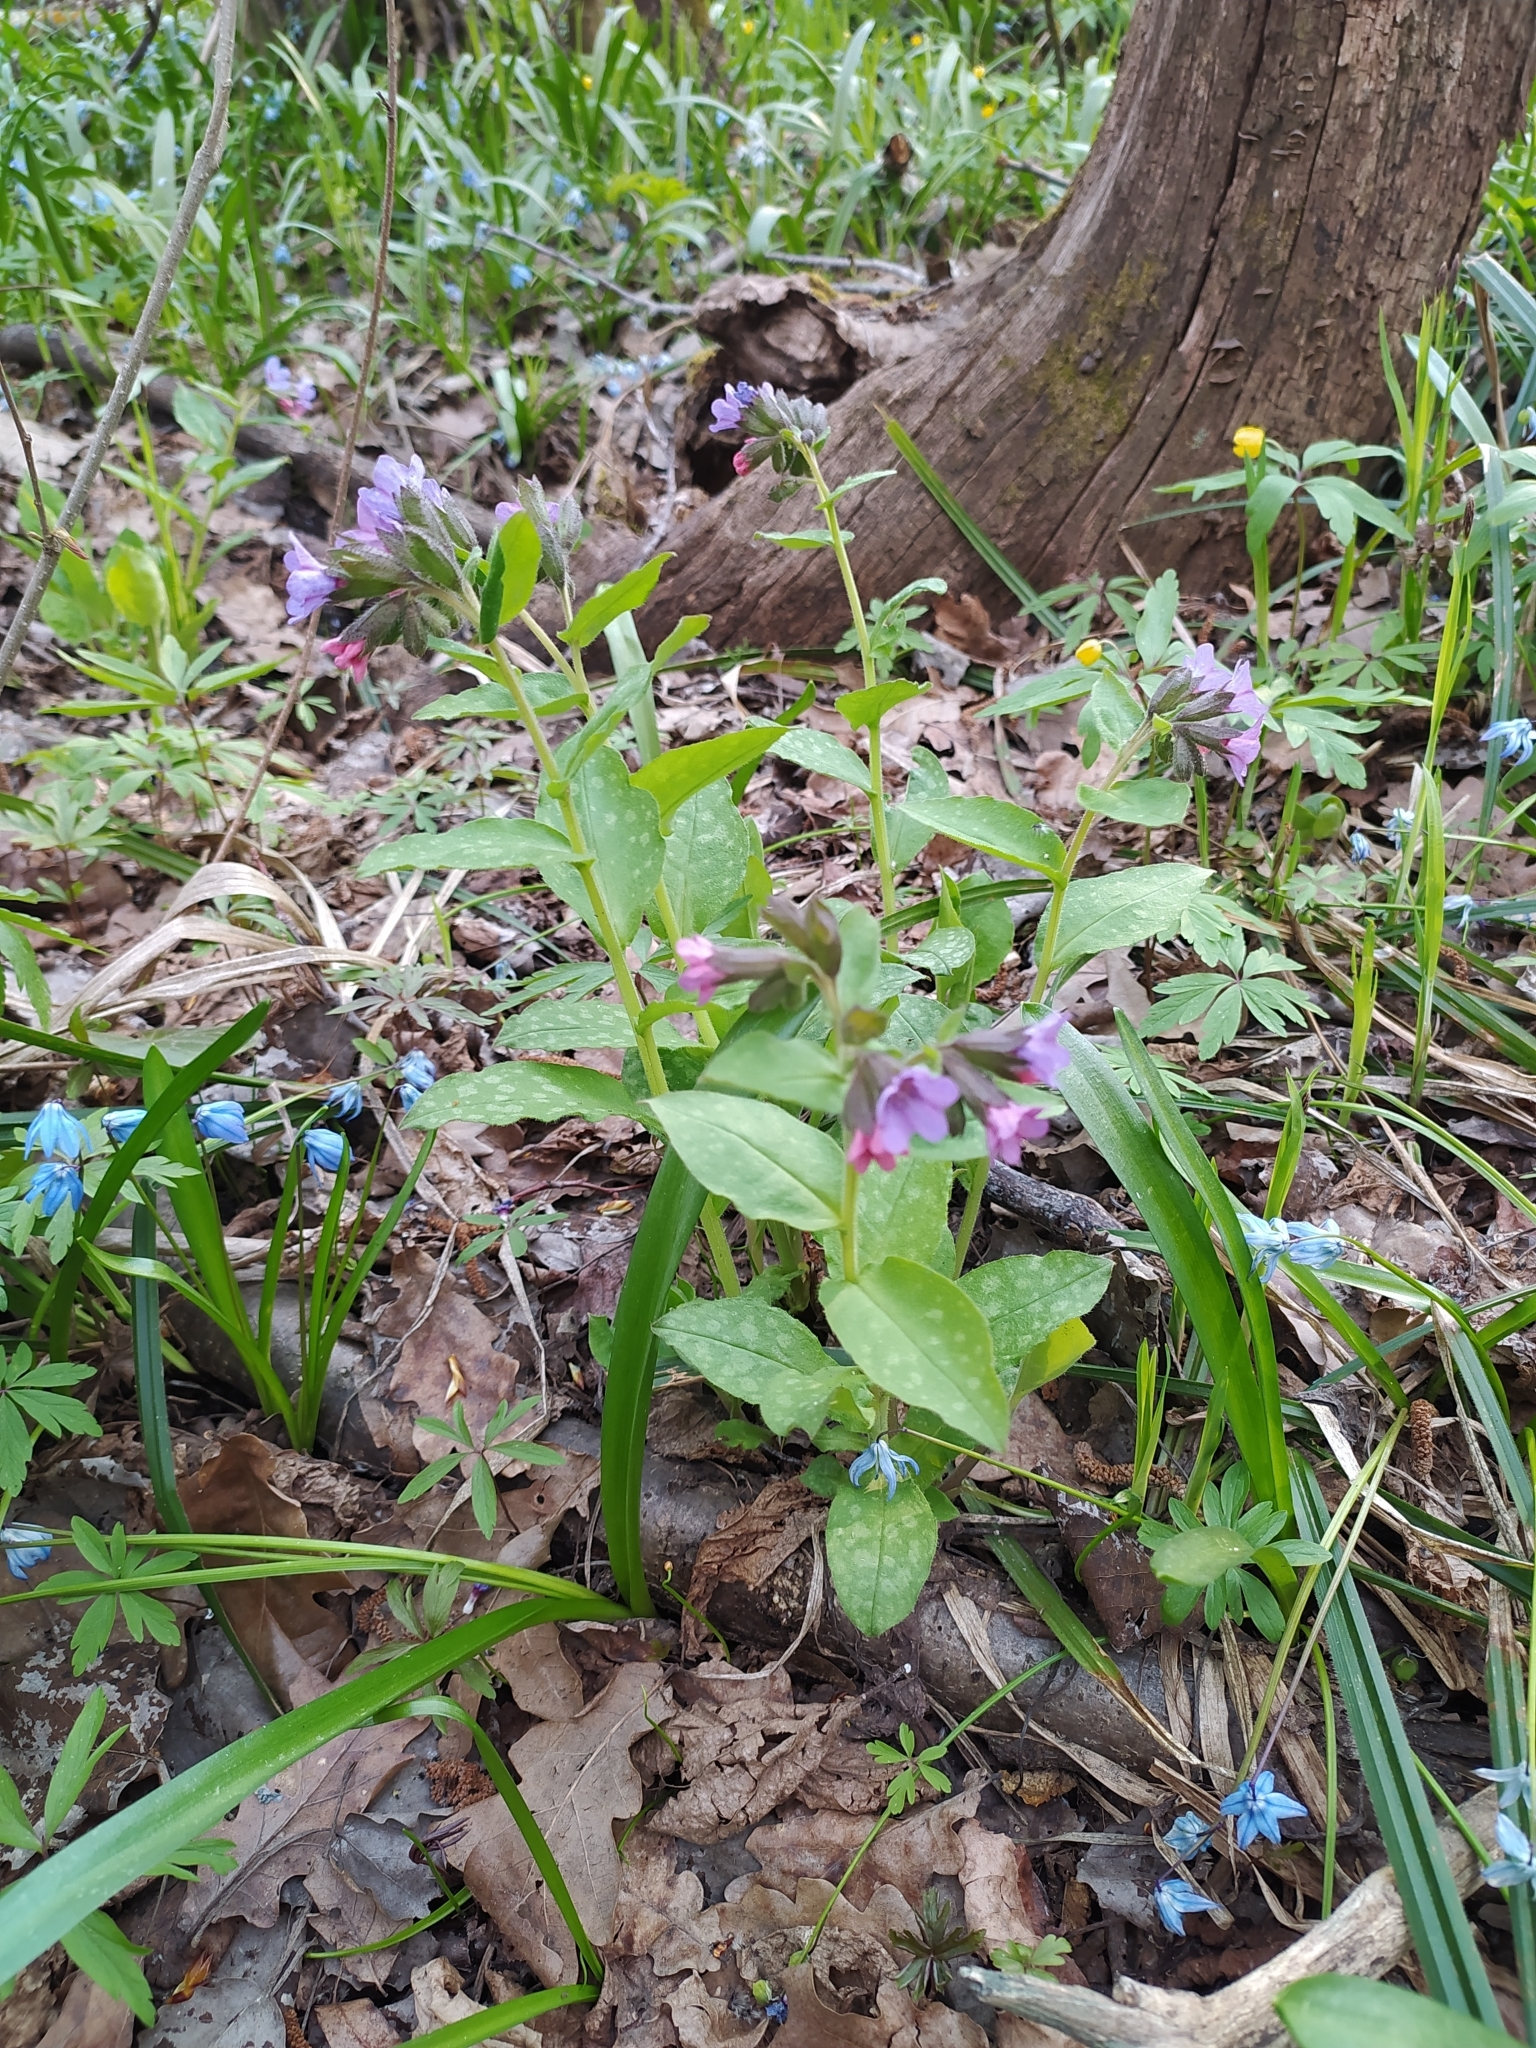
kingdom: Plantae
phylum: Tracheophyta
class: Magnoliopsida
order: Boraginales
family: Boraginaceae
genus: Pulmonaria
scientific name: Pulmonaria obscura
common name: Suffolk lungwort
